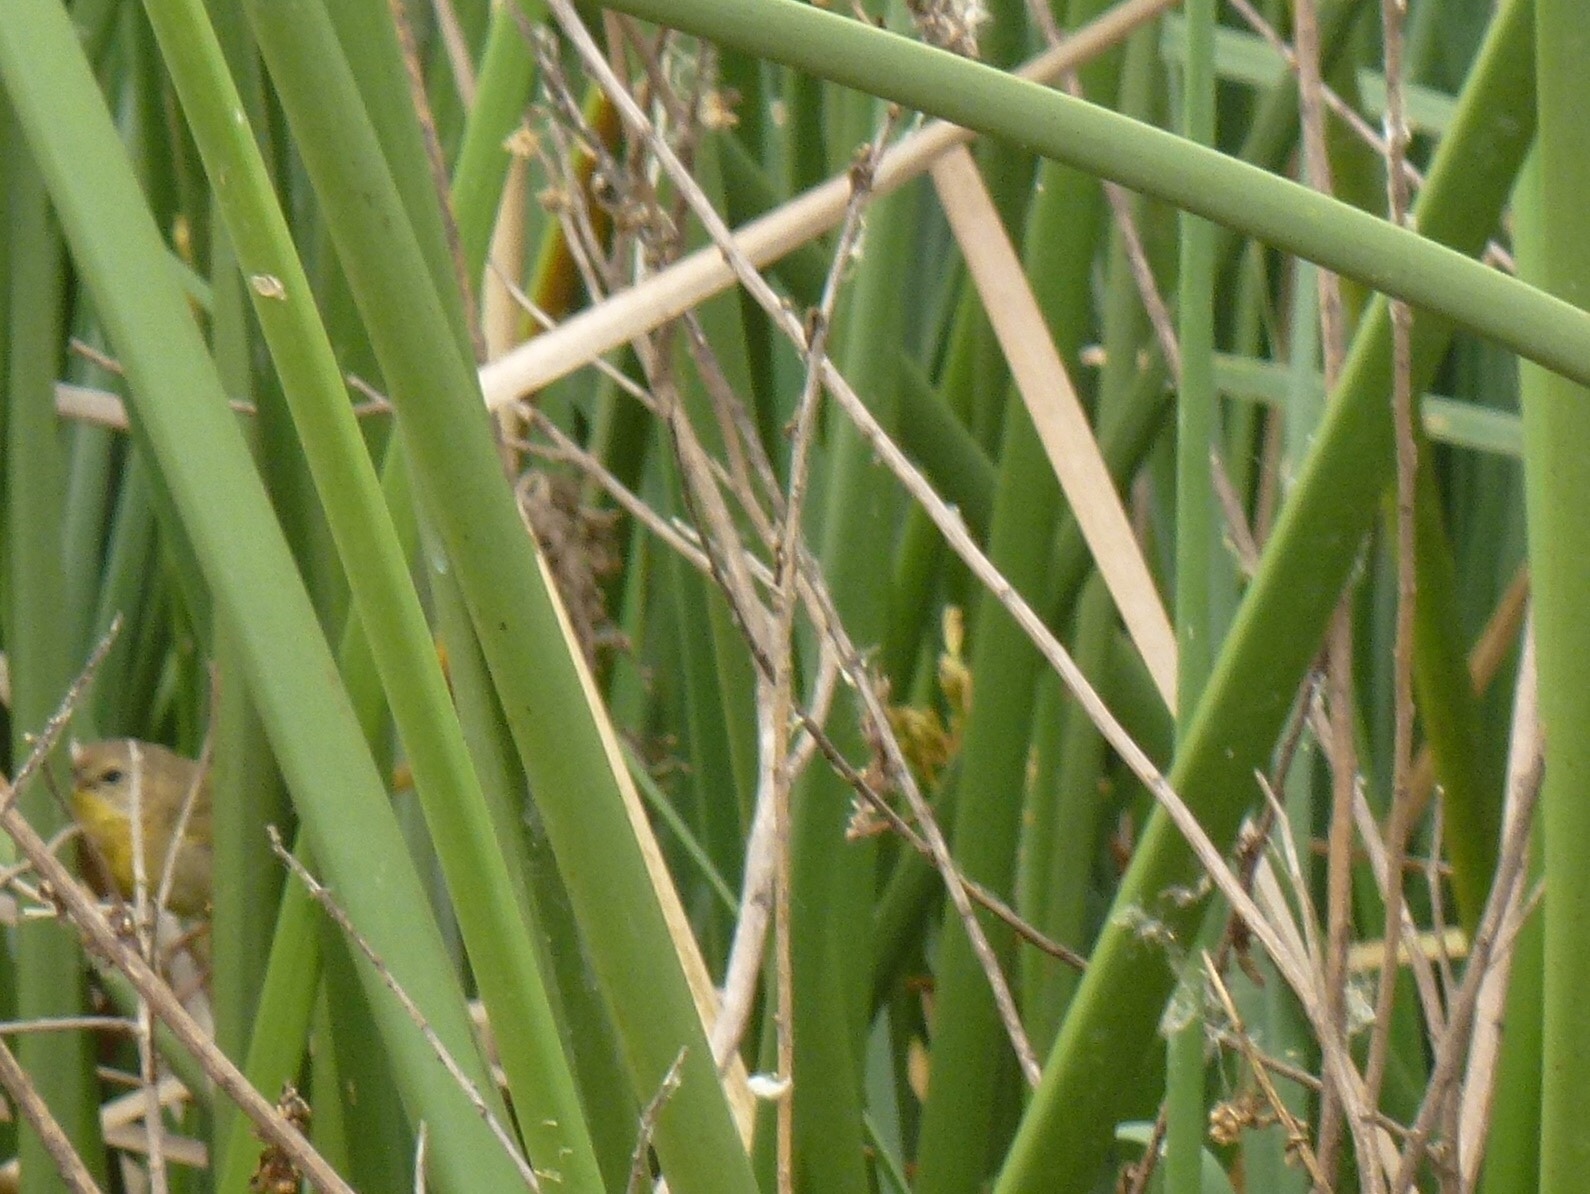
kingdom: Animalia
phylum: Chordata
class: Aves
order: Passeriformes
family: Parulidae
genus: Geothlypis
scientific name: Geothlypis trichas
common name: Common yellowthroat
